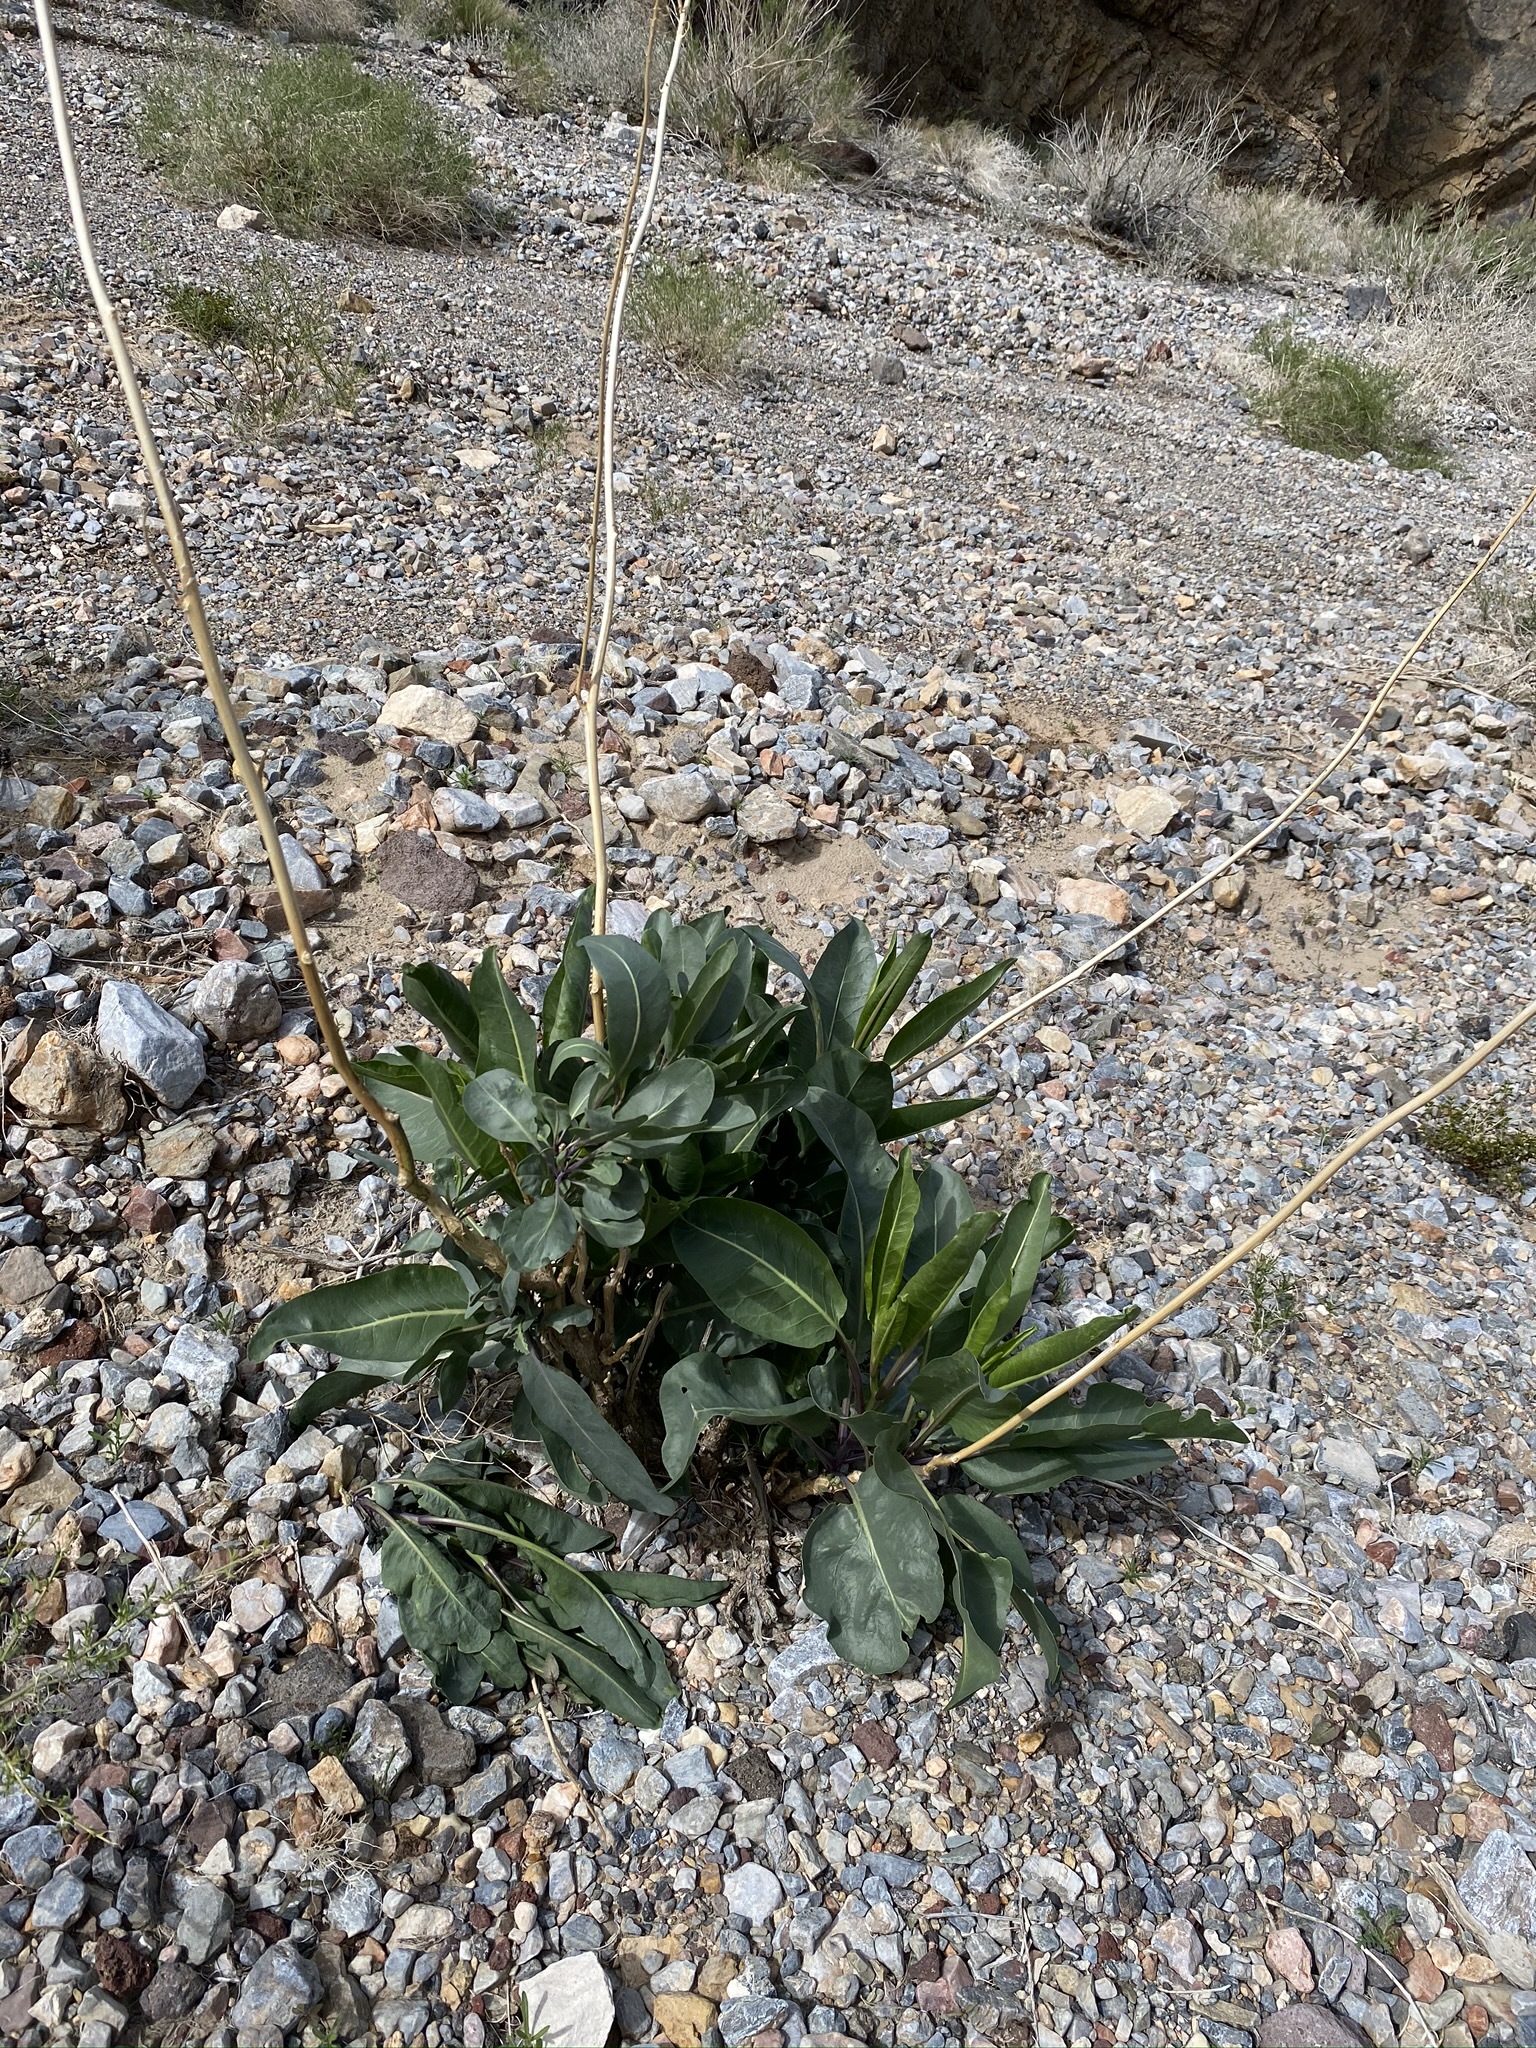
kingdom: Plantae
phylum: Tracheophyta
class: Magnoliopsida
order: Brassicales
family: Brassicaceae
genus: Stanleya
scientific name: Stanleya elata
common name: Panamint prince's plume
